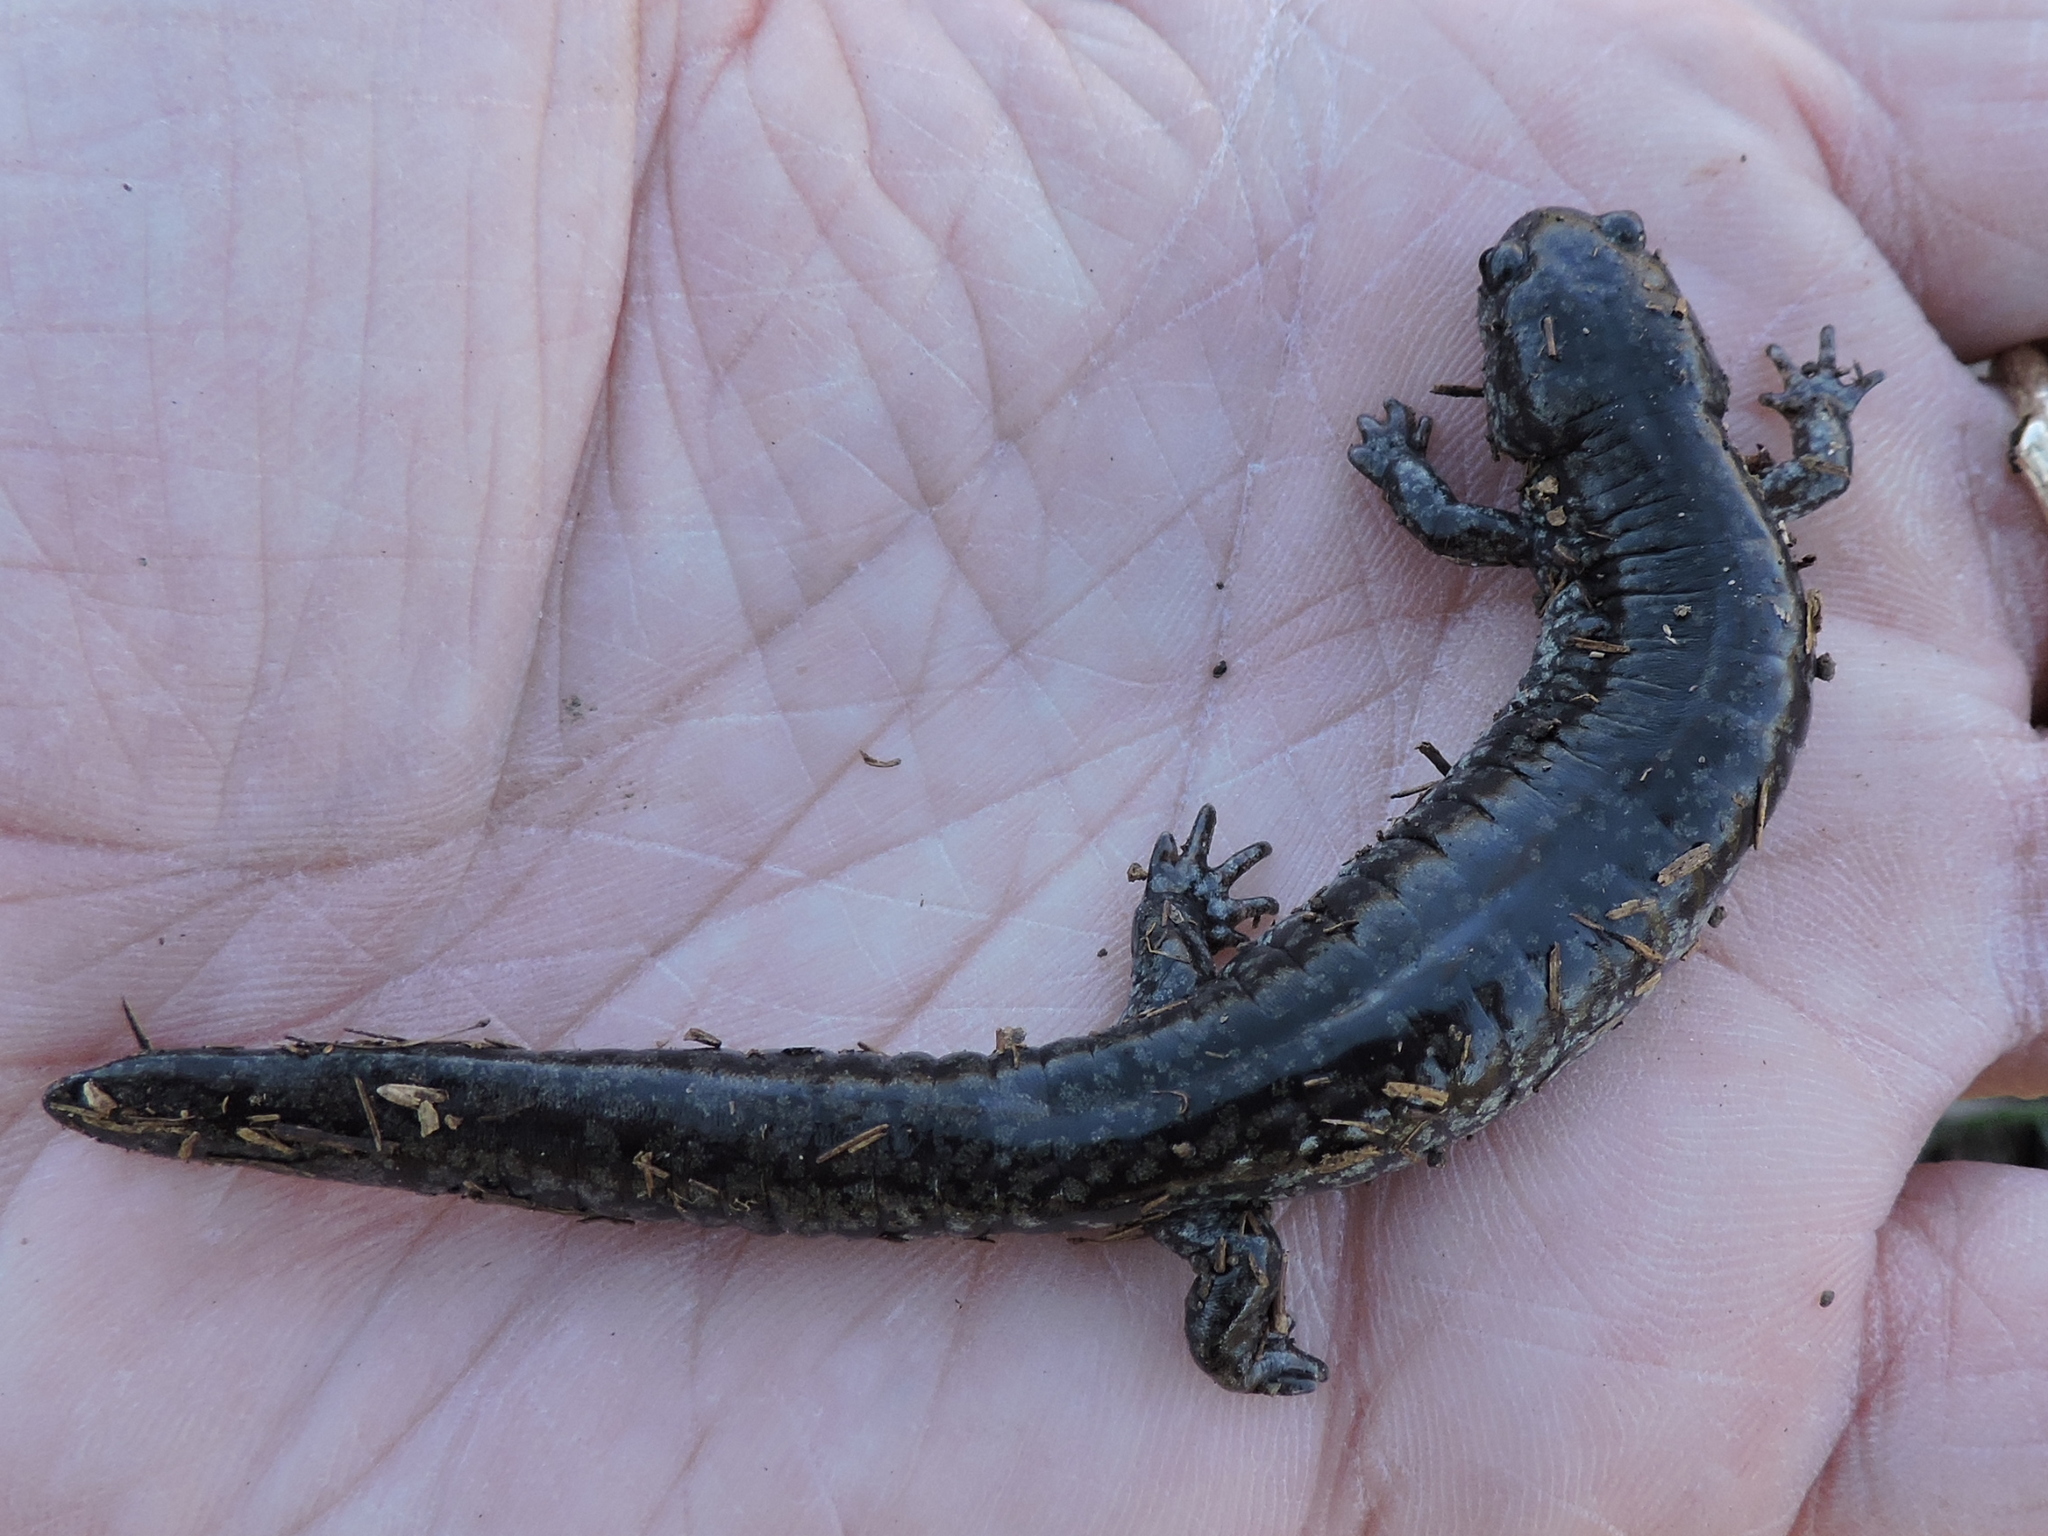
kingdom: Animalia
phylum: Chordata
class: Amphibia
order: Caudata
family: Ambystomatidae
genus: Ambystoma
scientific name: Ambystoma texanum
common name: Small-mouth salamander
